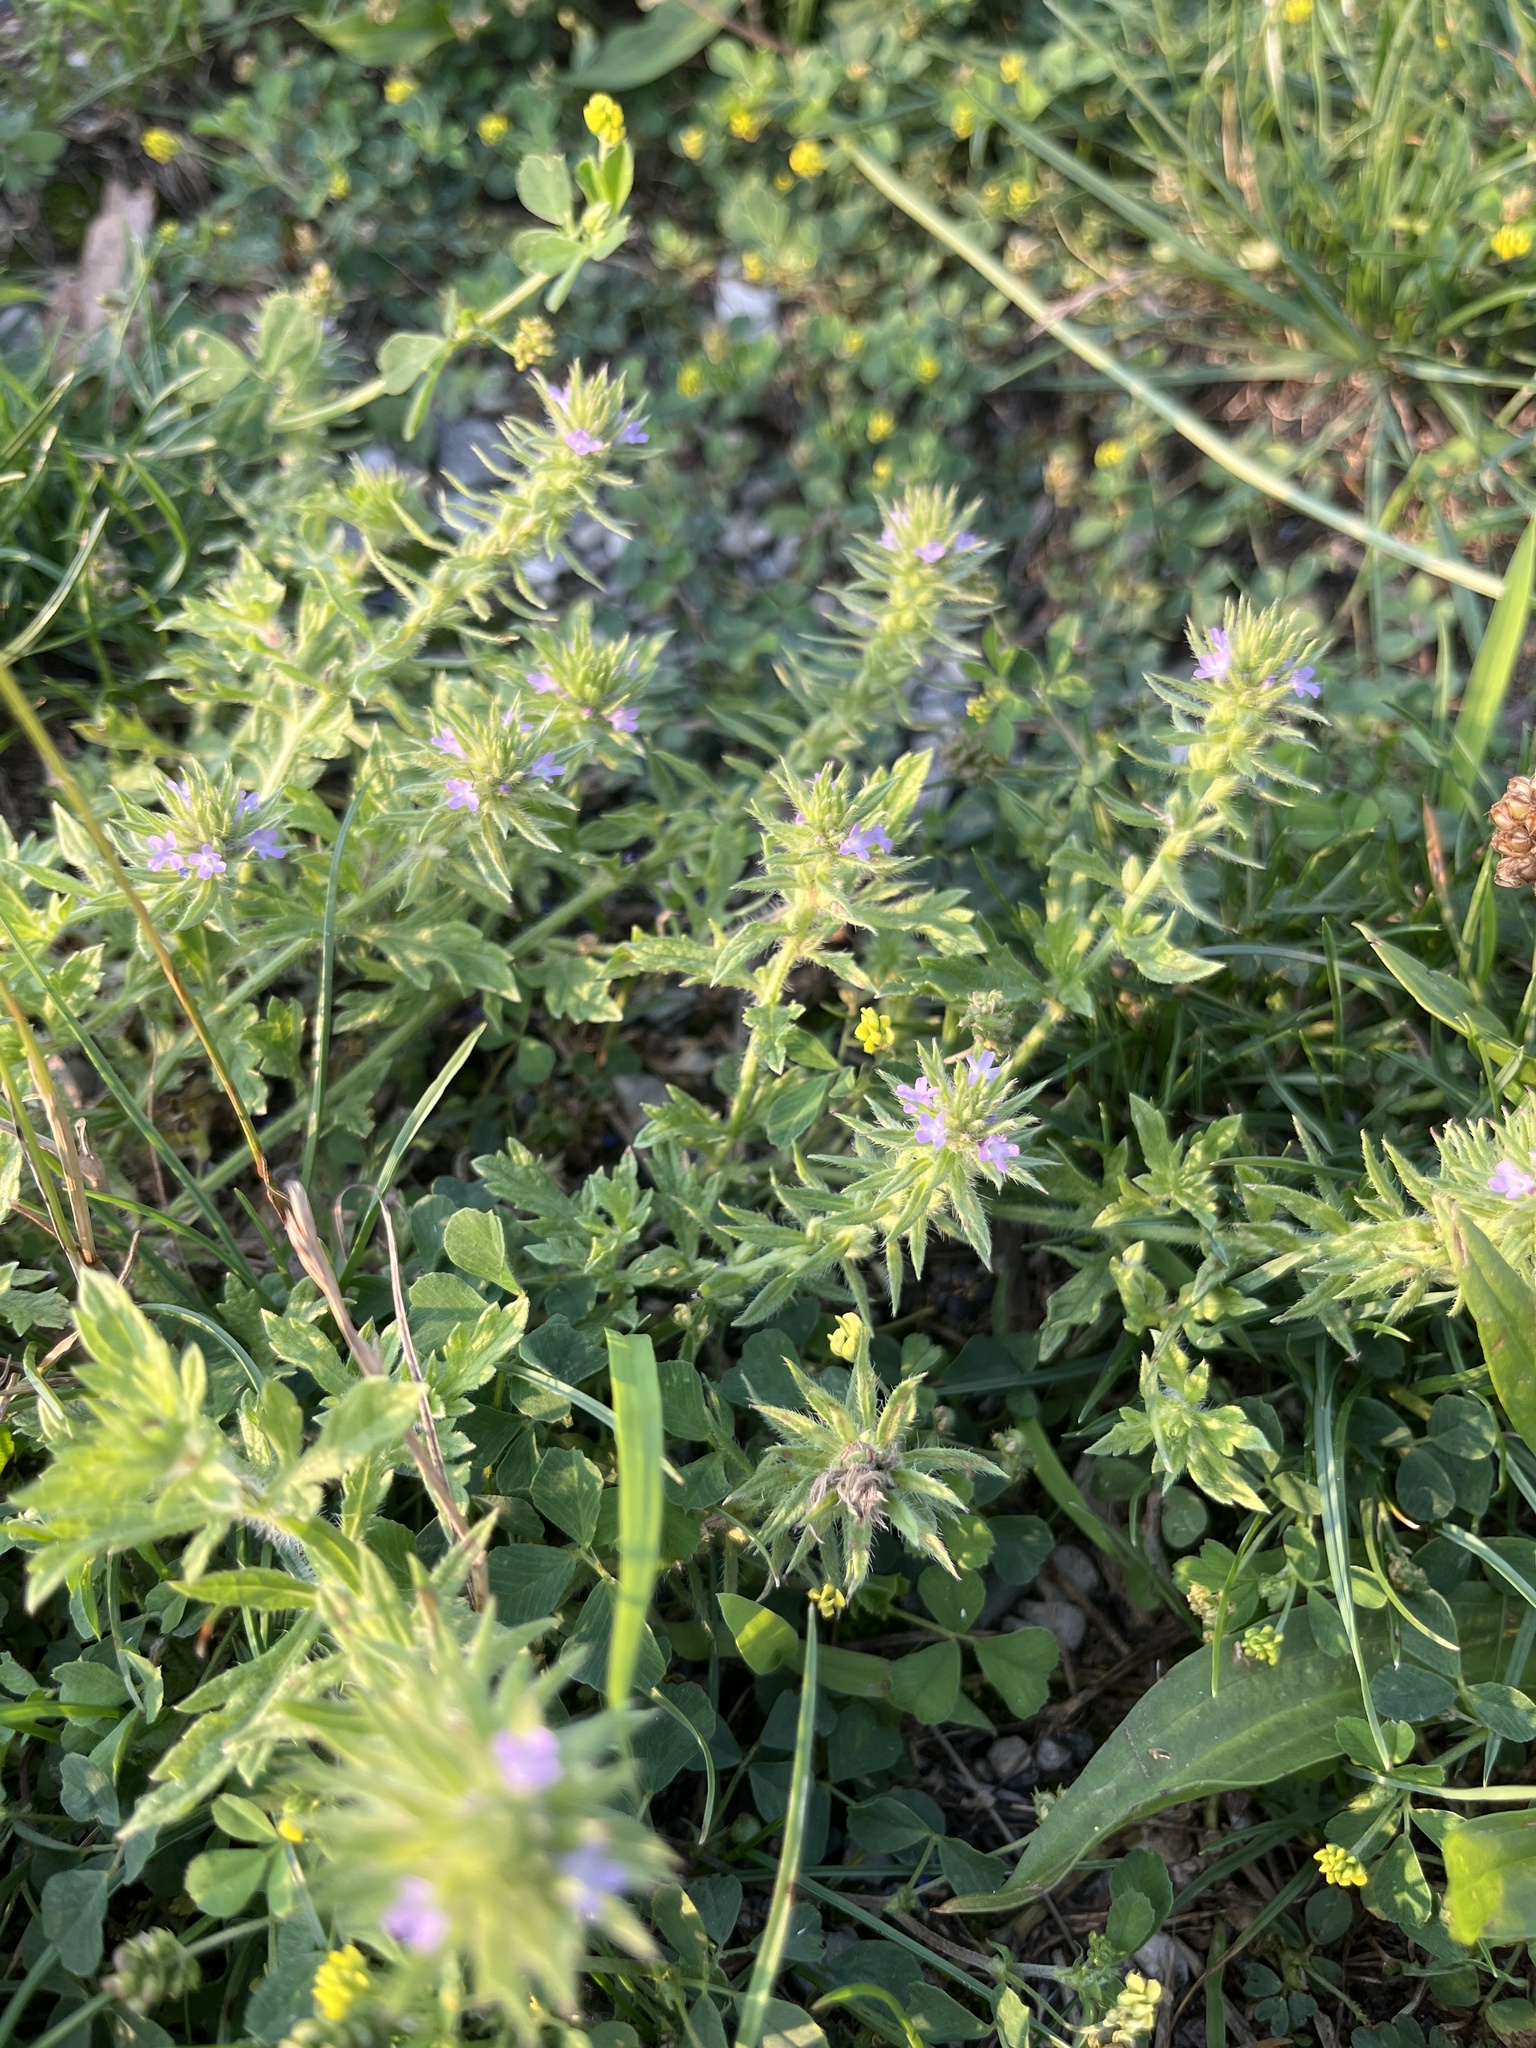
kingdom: Plantae
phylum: Tracheophyta
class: Magnoliopsida
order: Lamiales
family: Verbenaceae
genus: Verbena
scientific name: Verbena bracteata
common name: Bracted vervain
